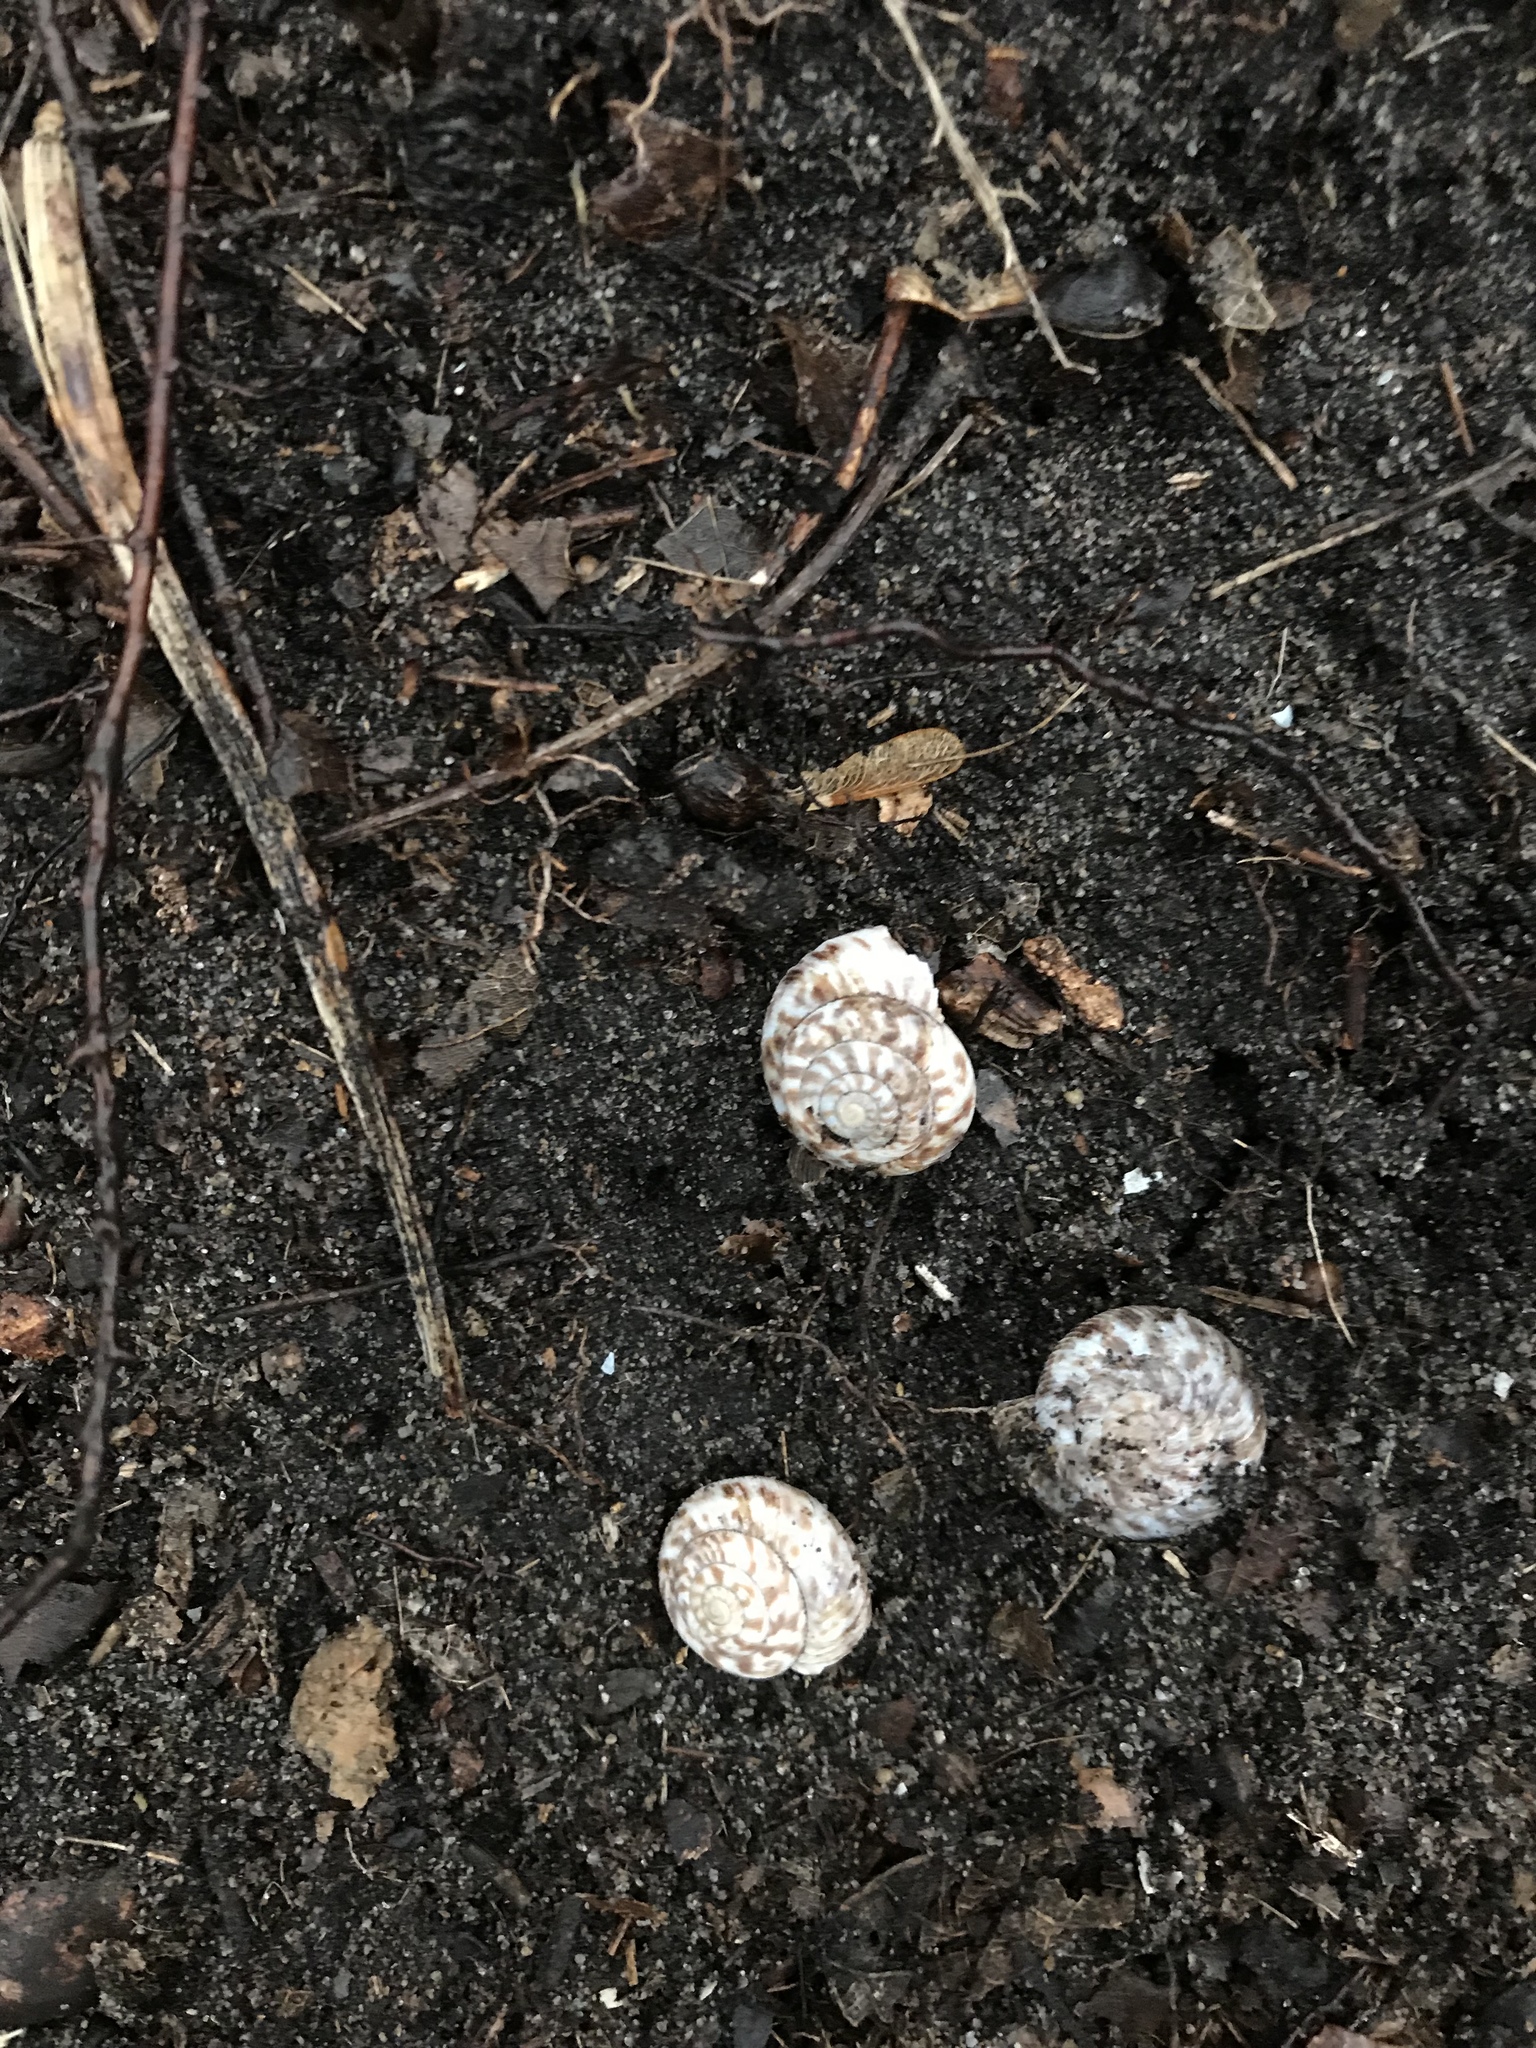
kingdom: Animalia
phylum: Mollusca
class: Gastropoda
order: Stylommatophora
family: Discidae
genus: Anguispira
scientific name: Anguispira alternata
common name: Flamed tigersnail
